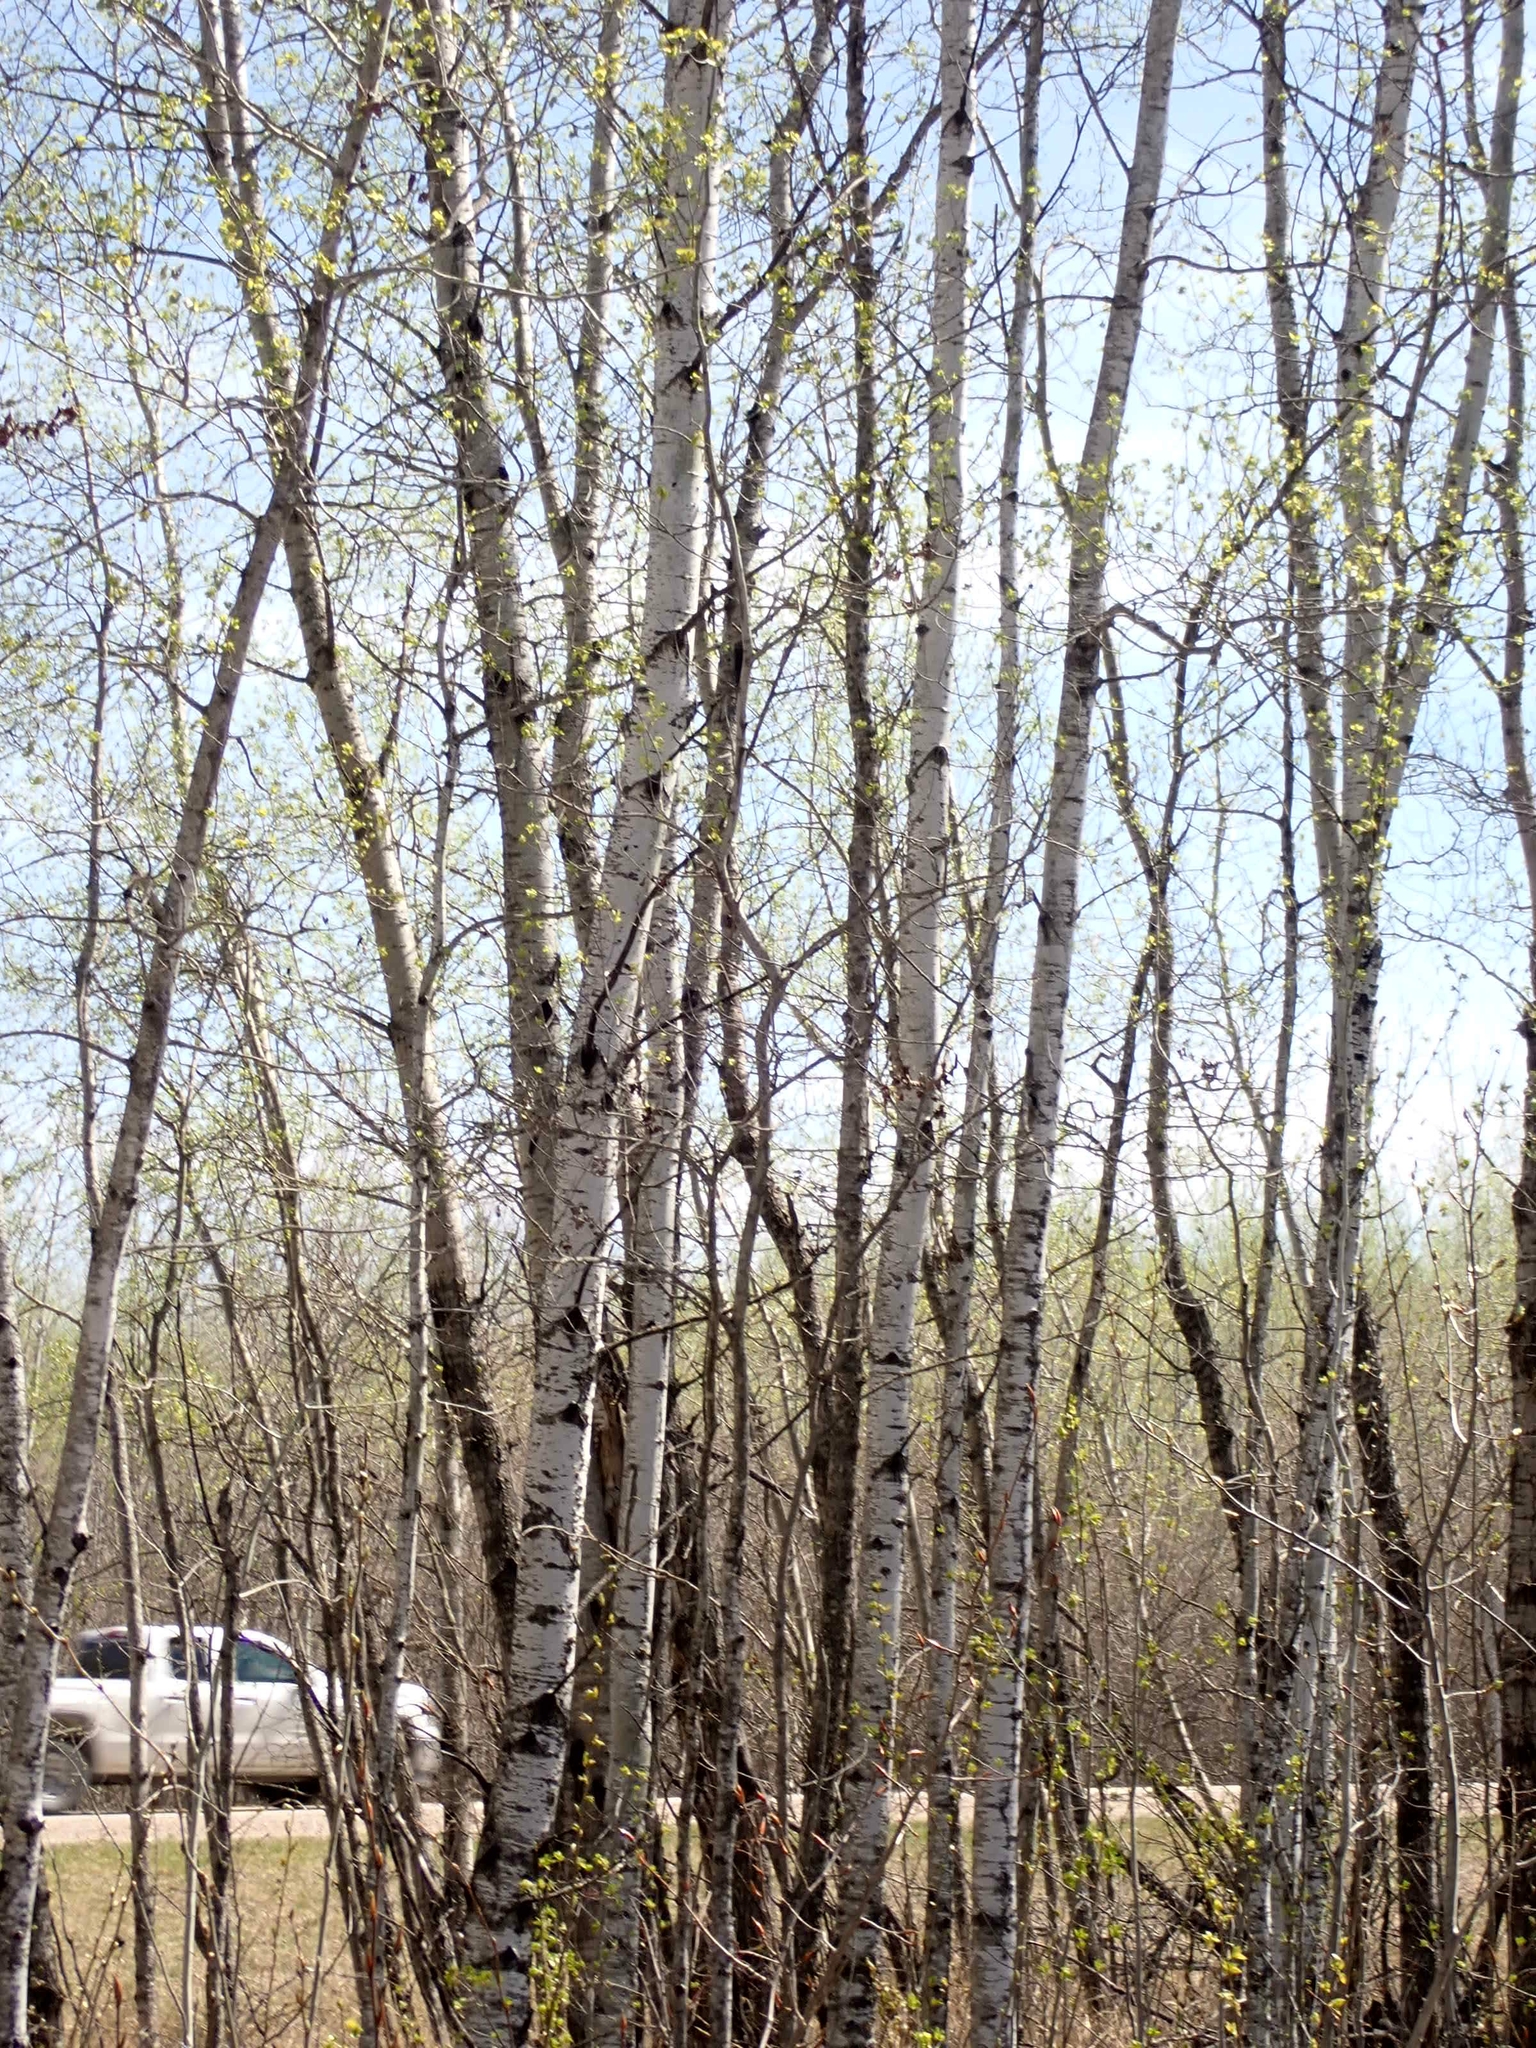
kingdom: Plantae
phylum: Tracheophyta
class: Magnoliopsida
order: Malpighiales
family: Salicaceae
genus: Populus
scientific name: Populus tremuloides
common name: Quaking aspen
